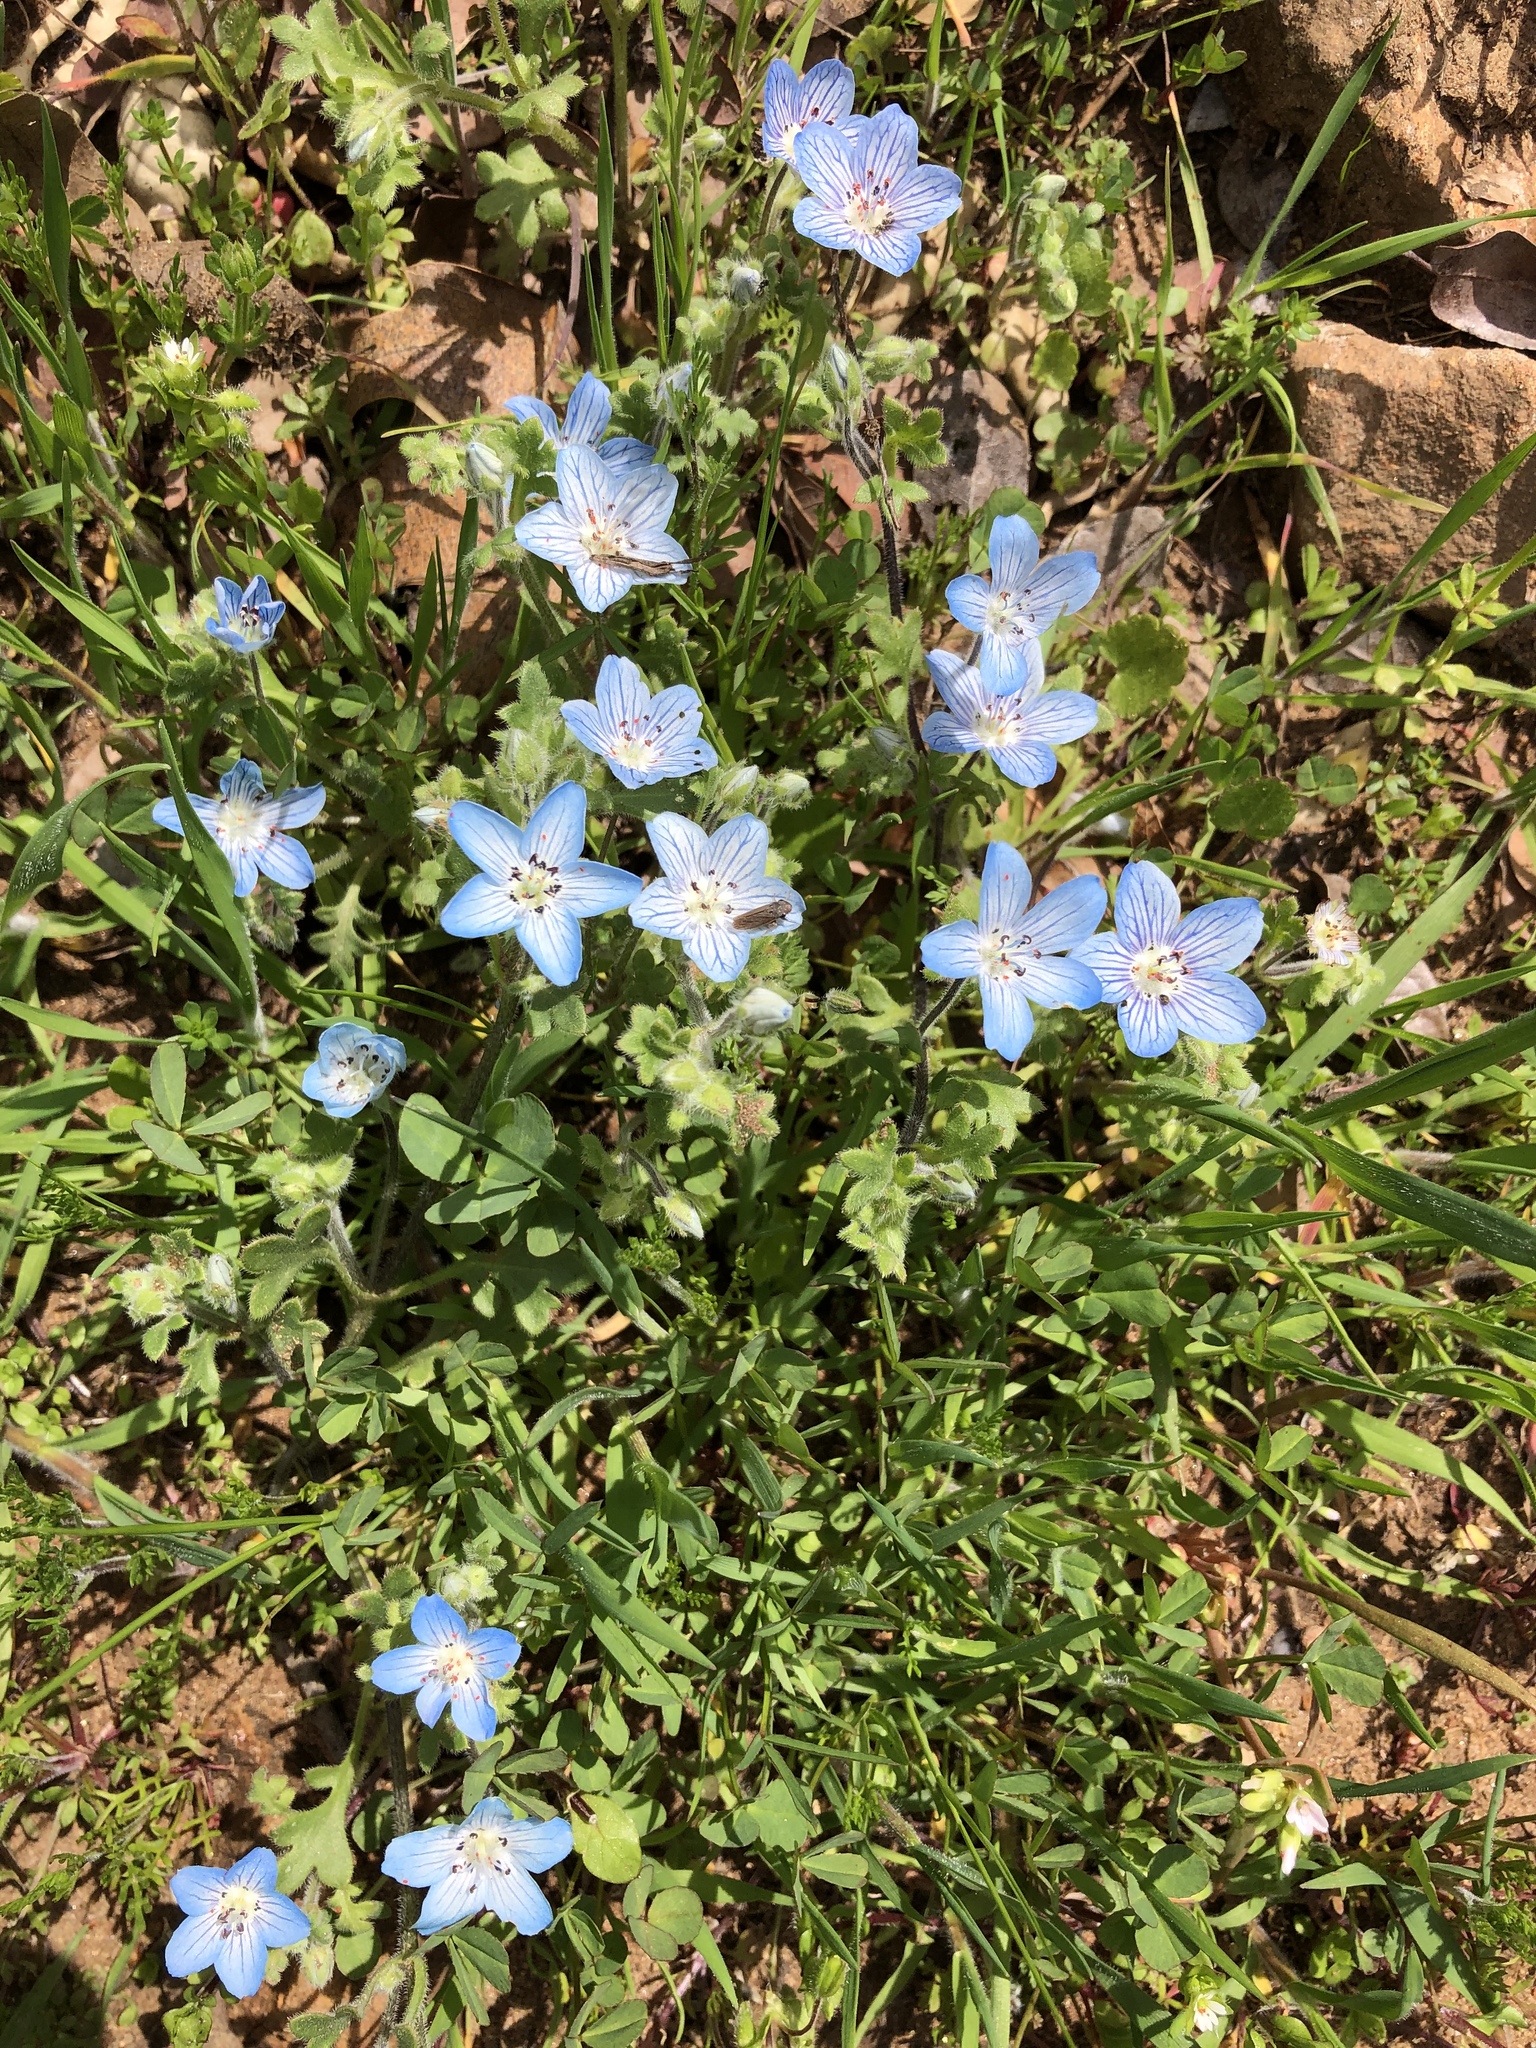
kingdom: Plantae
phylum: Tracheophyta
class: Magnoliopsida
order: Boraginales
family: Hydrophyllaceae
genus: Nemophila
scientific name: Nemophila menziesii
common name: Baby's-blue-eyes
